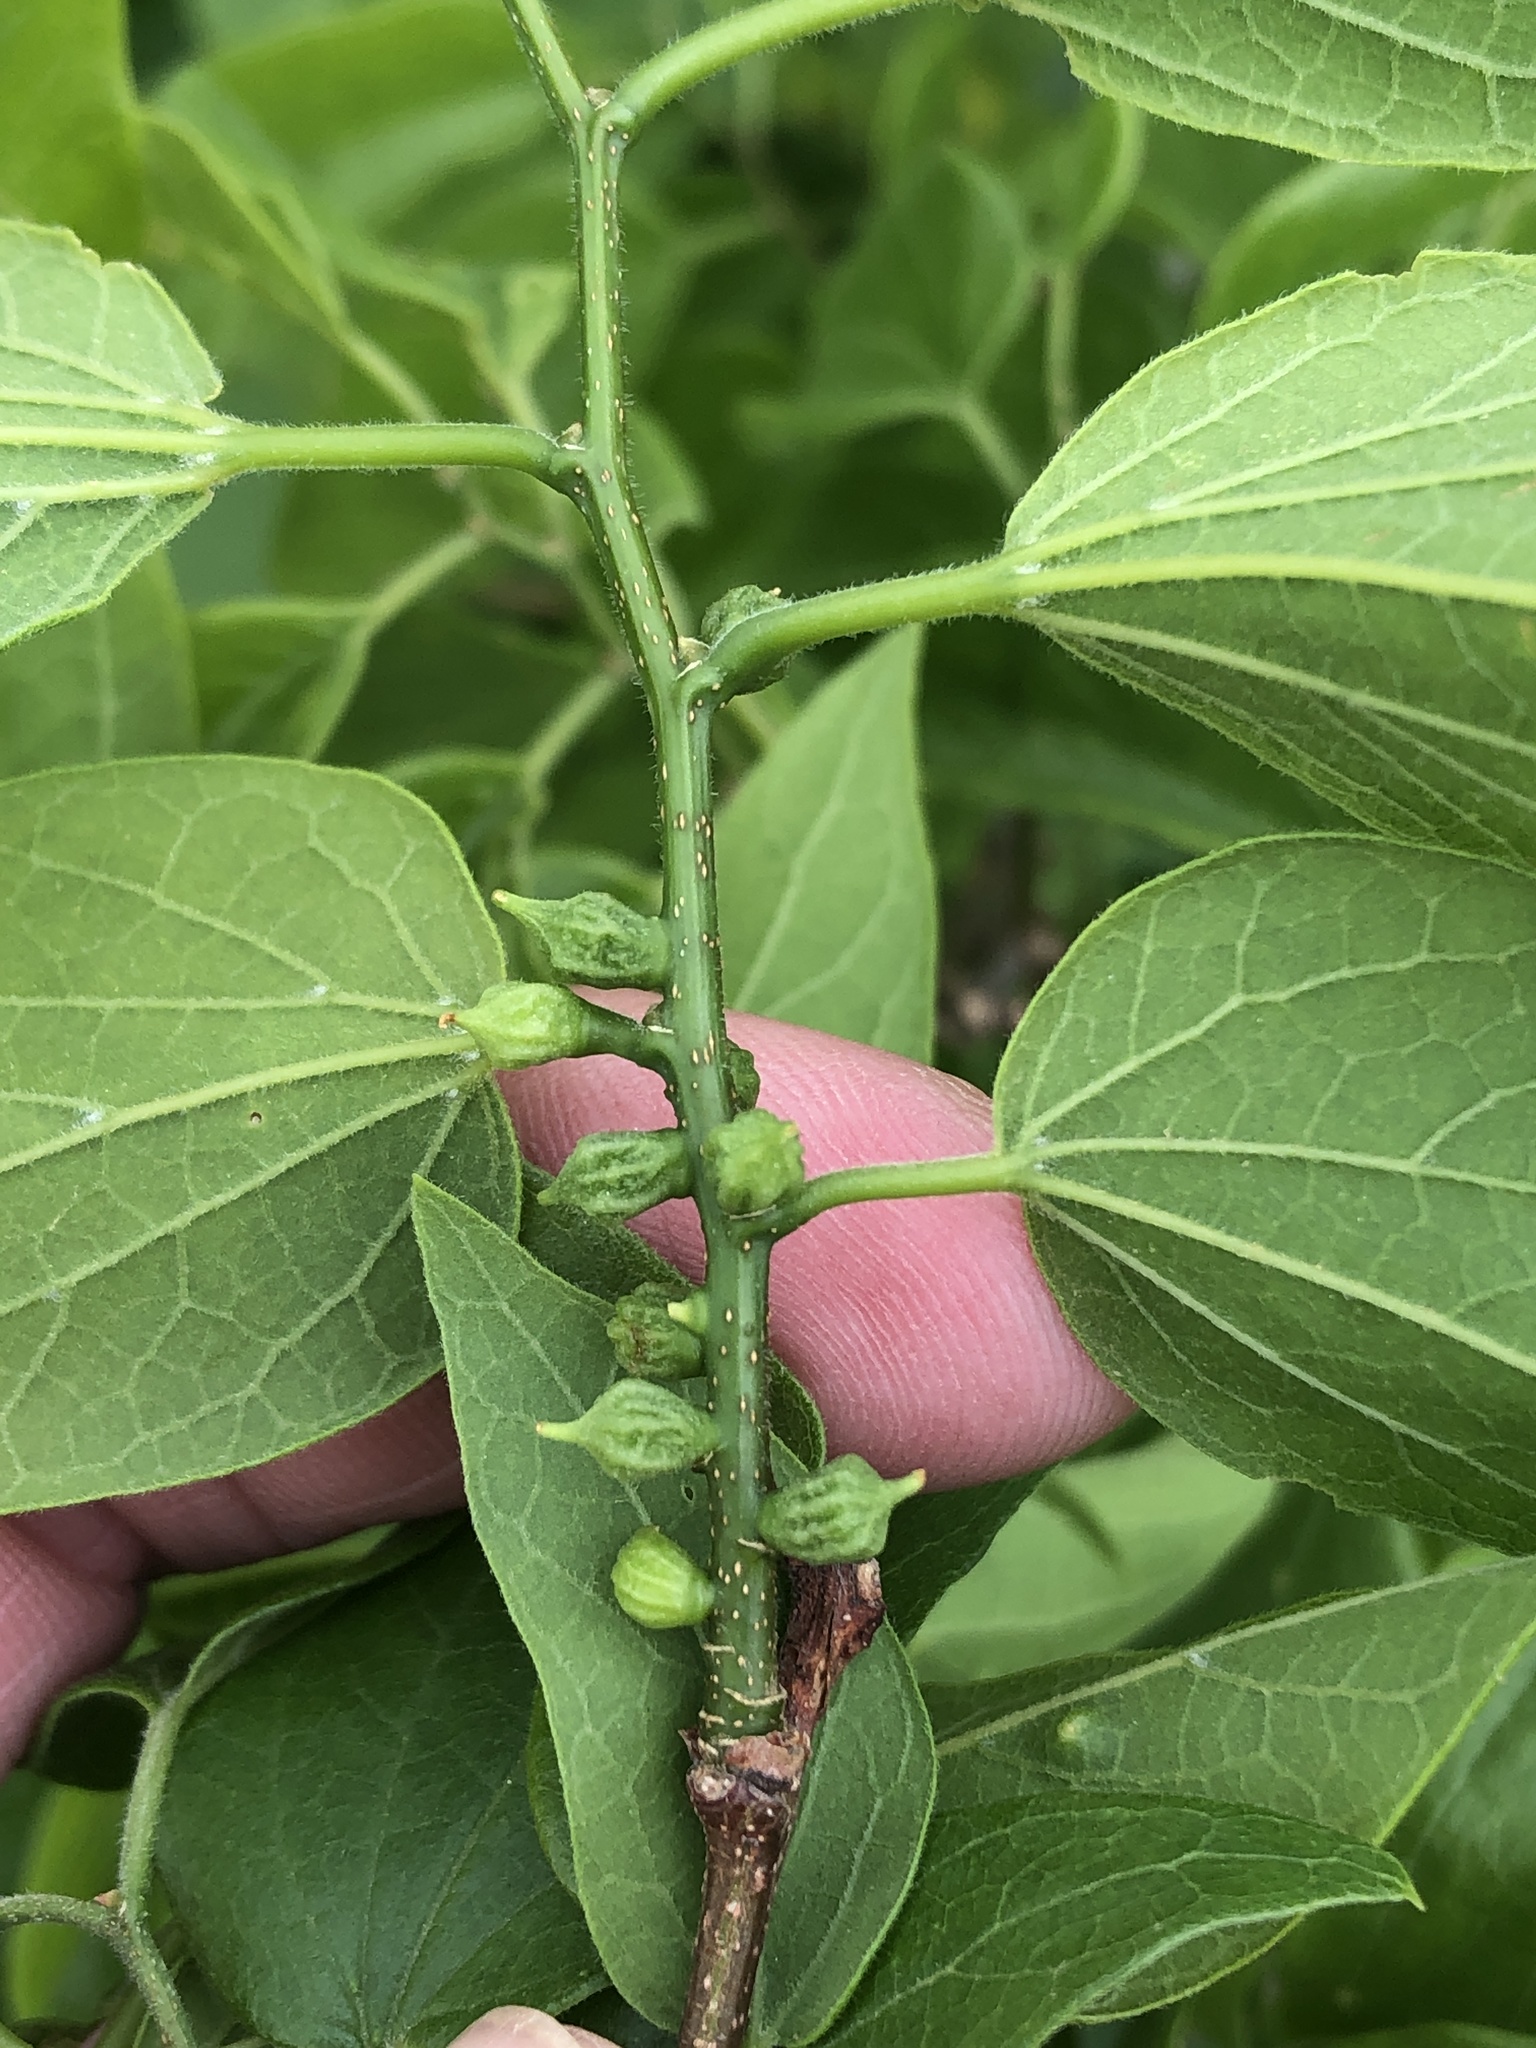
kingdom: Animalia
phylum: Arthropoda
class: Insecta
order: Diptera
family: Cecidomyiidae
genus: Celticecis
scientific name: Celticecis ramicola
